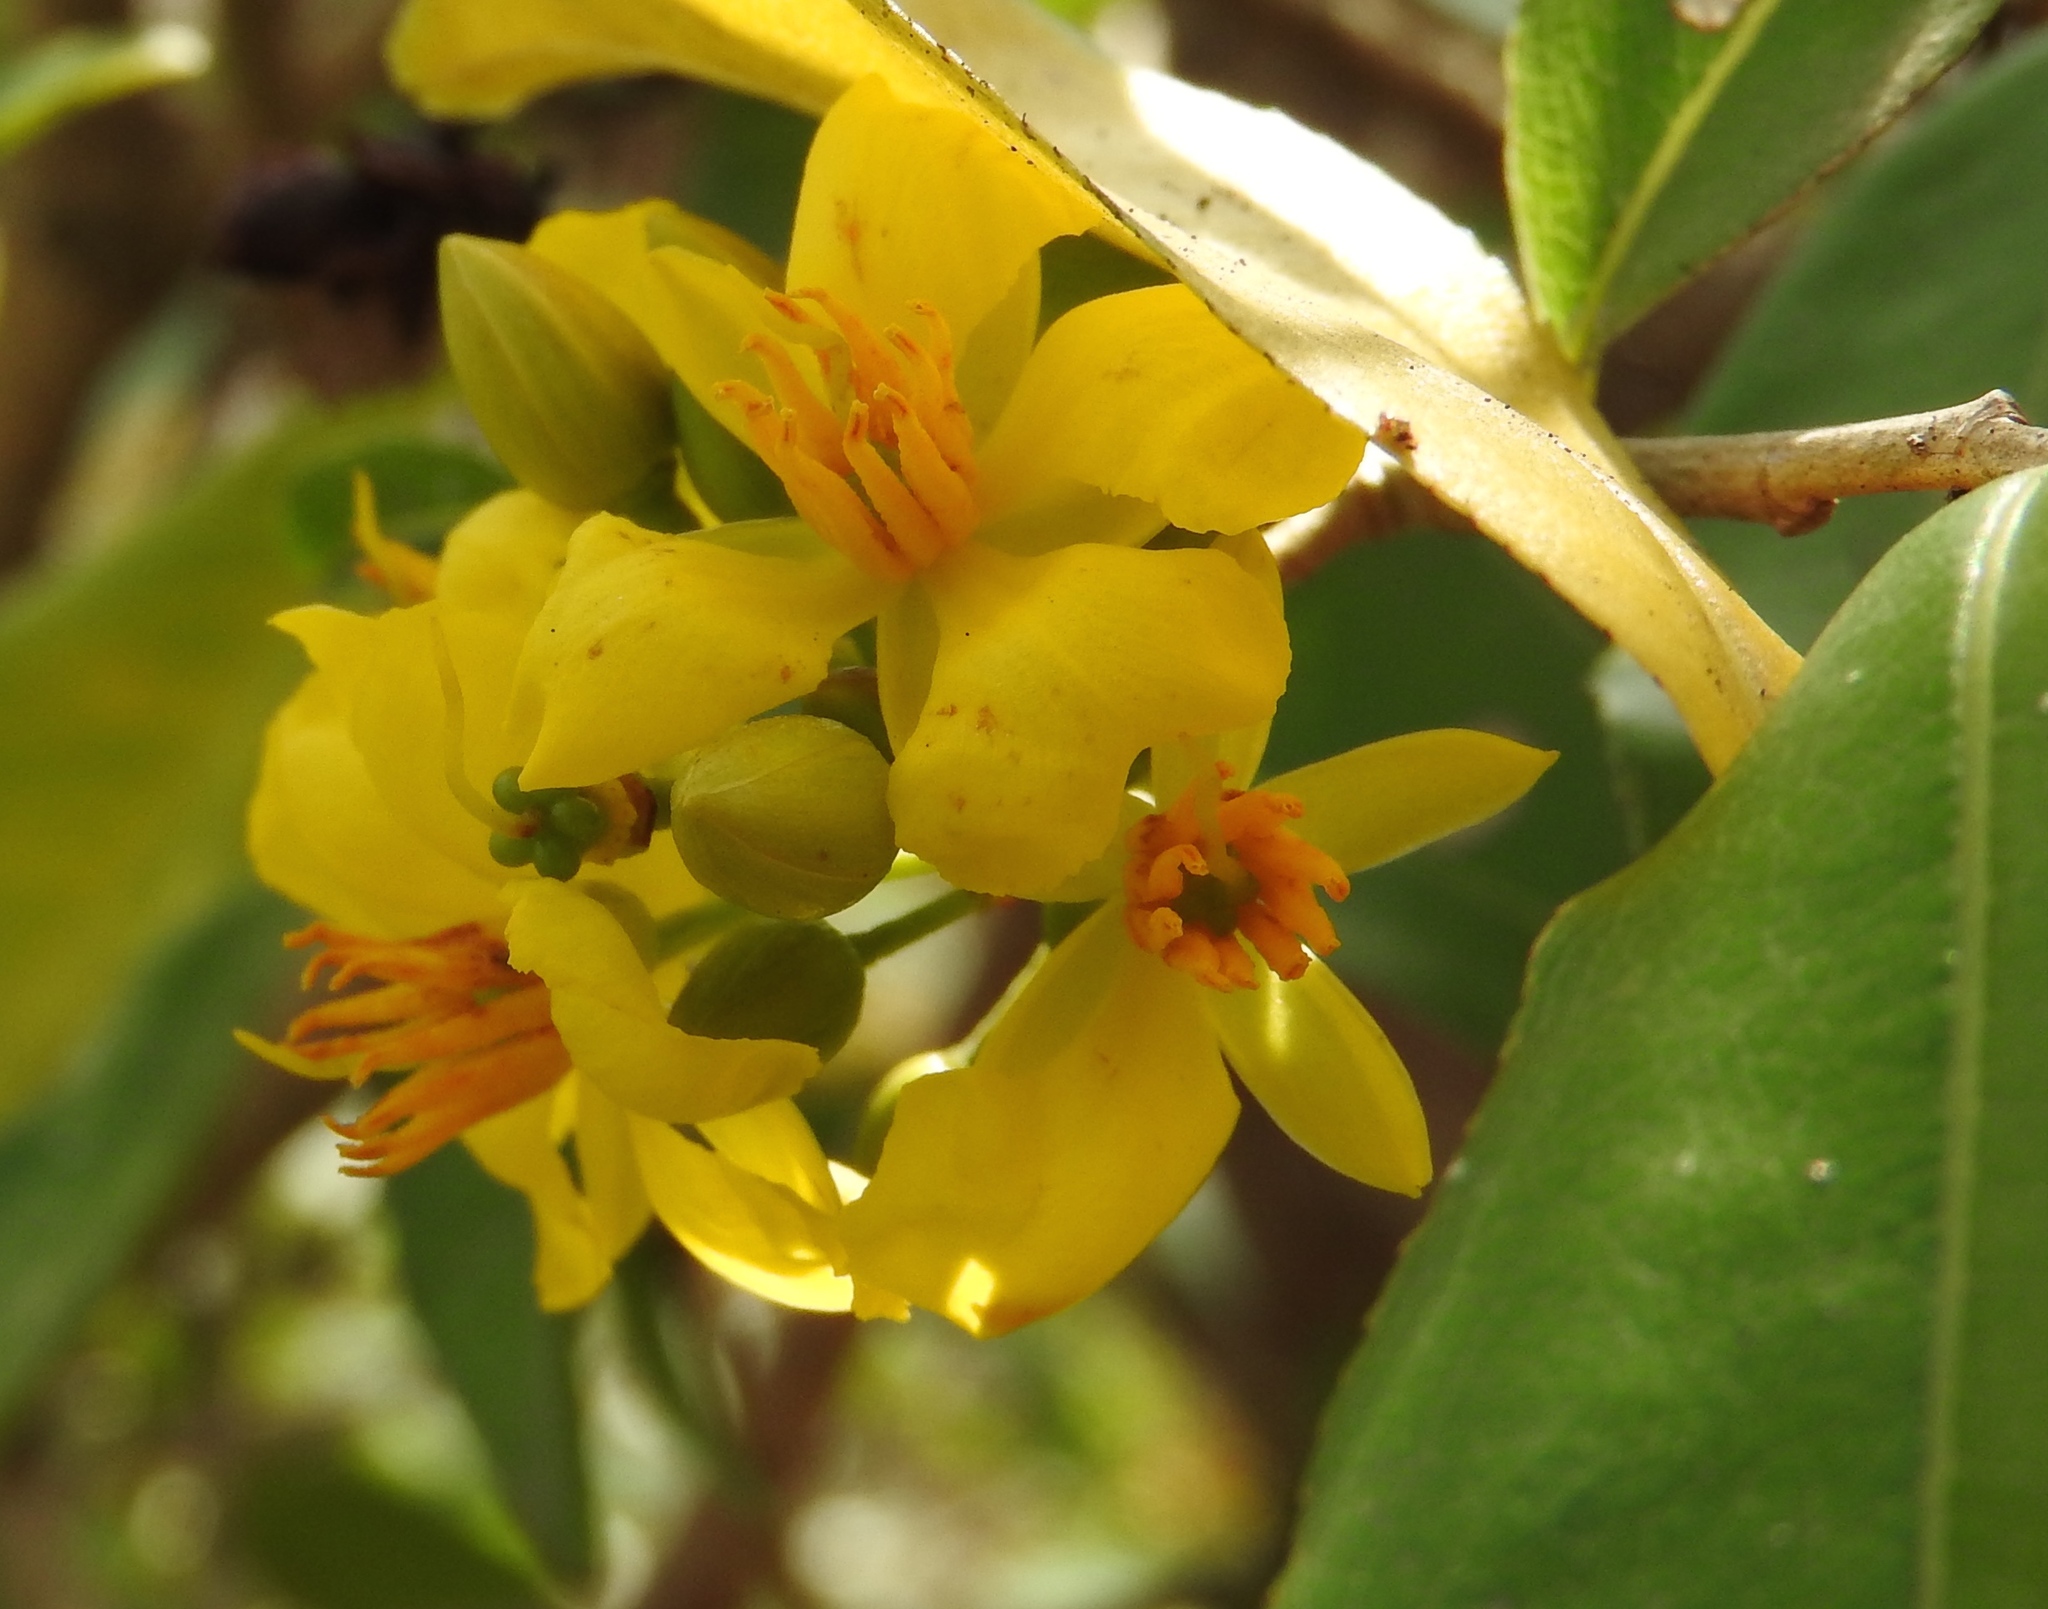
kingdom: Plantae
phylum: Tracheophyta
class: Magnoliopsida
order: Malpighiales
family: Ochnaceae
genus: Ouratea
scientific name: Ouratea mexicana
